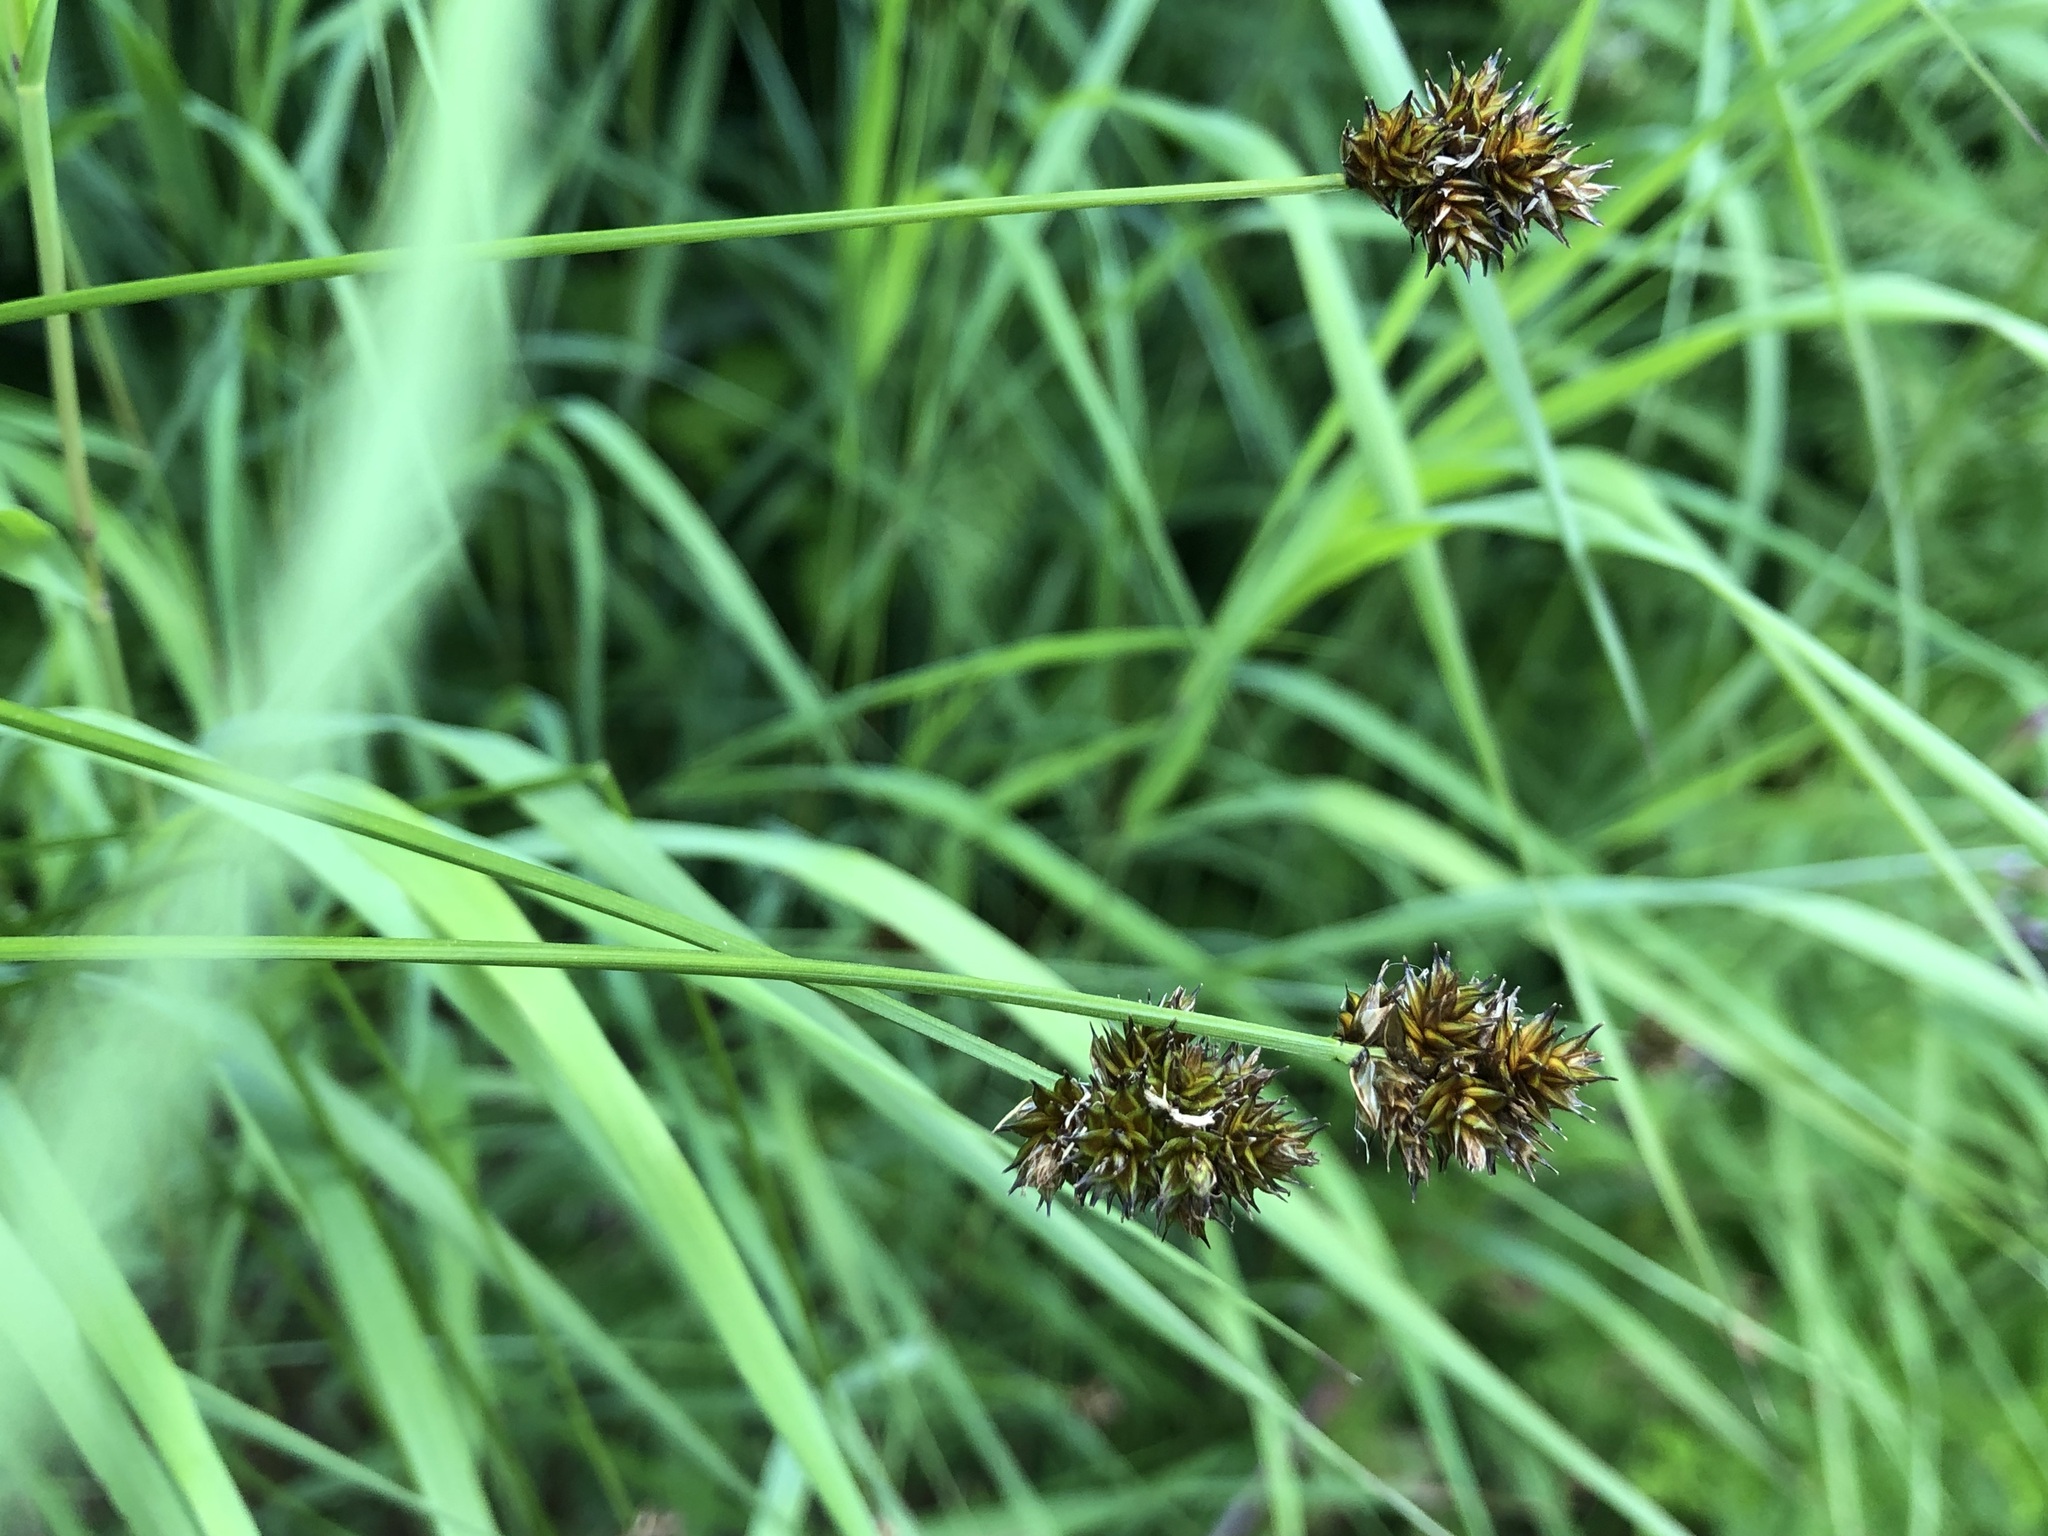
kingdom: Plantae
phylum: Tracheophyta
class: Liliopsida
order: Poales
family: Cyperaceae
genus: Carex
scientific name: Carex pachystachya
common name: Chamisso's sedge
